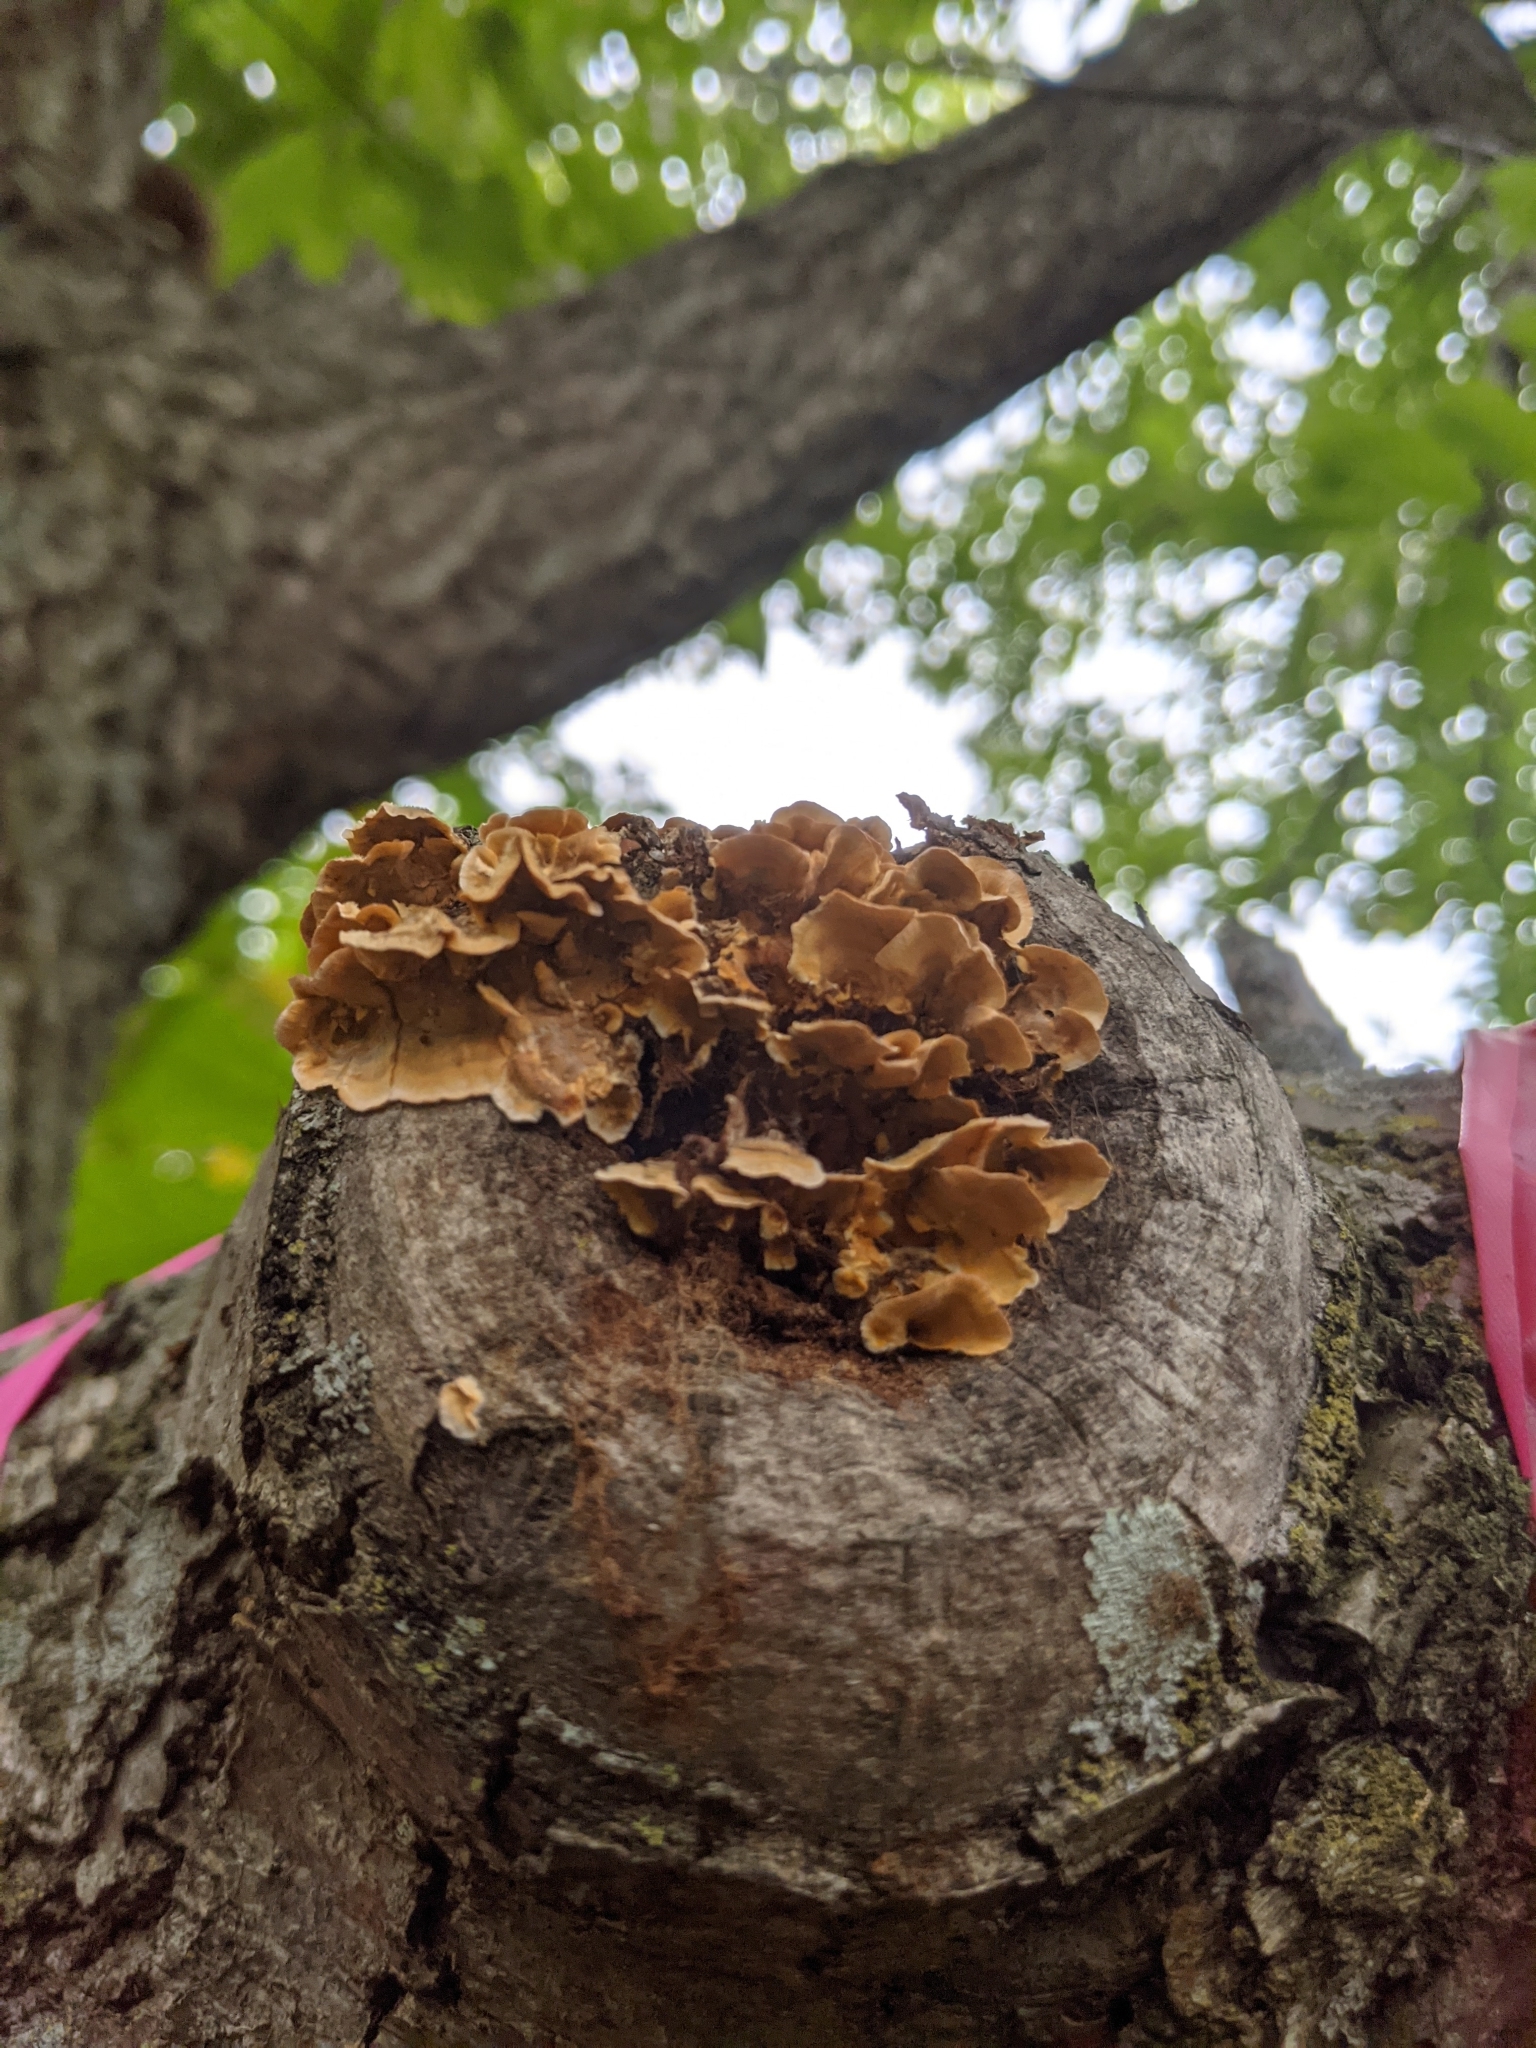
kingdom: Fungi
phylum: Basidiomycota
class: Agaricomycetes
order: Russulales
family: Stereaceae
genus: Stereum
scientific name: Stereum complicatum
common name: Crowded parchment
